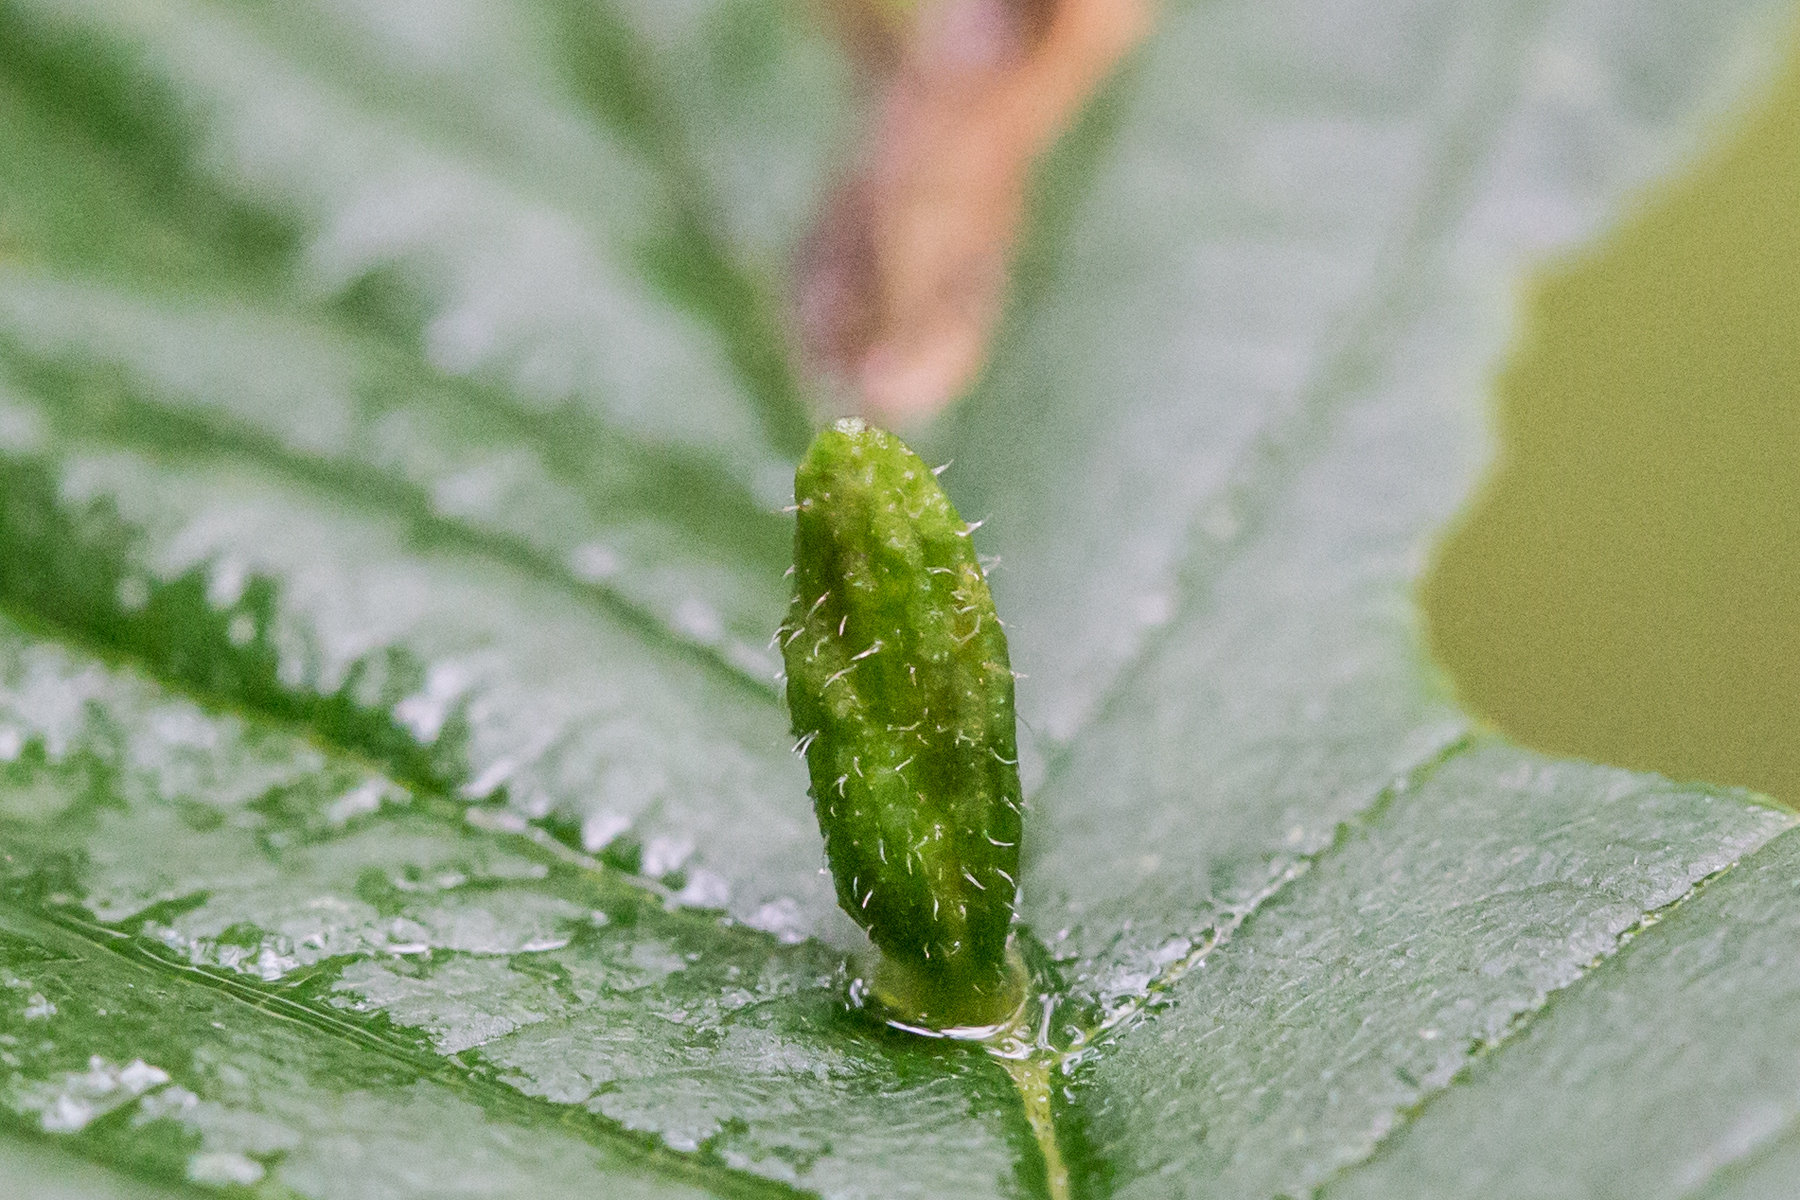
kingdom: Animalia
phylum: Arthropoda
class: Arachnida
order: Trombidiformes
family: Eriophyidae
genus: Aceria
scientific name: Aceria
